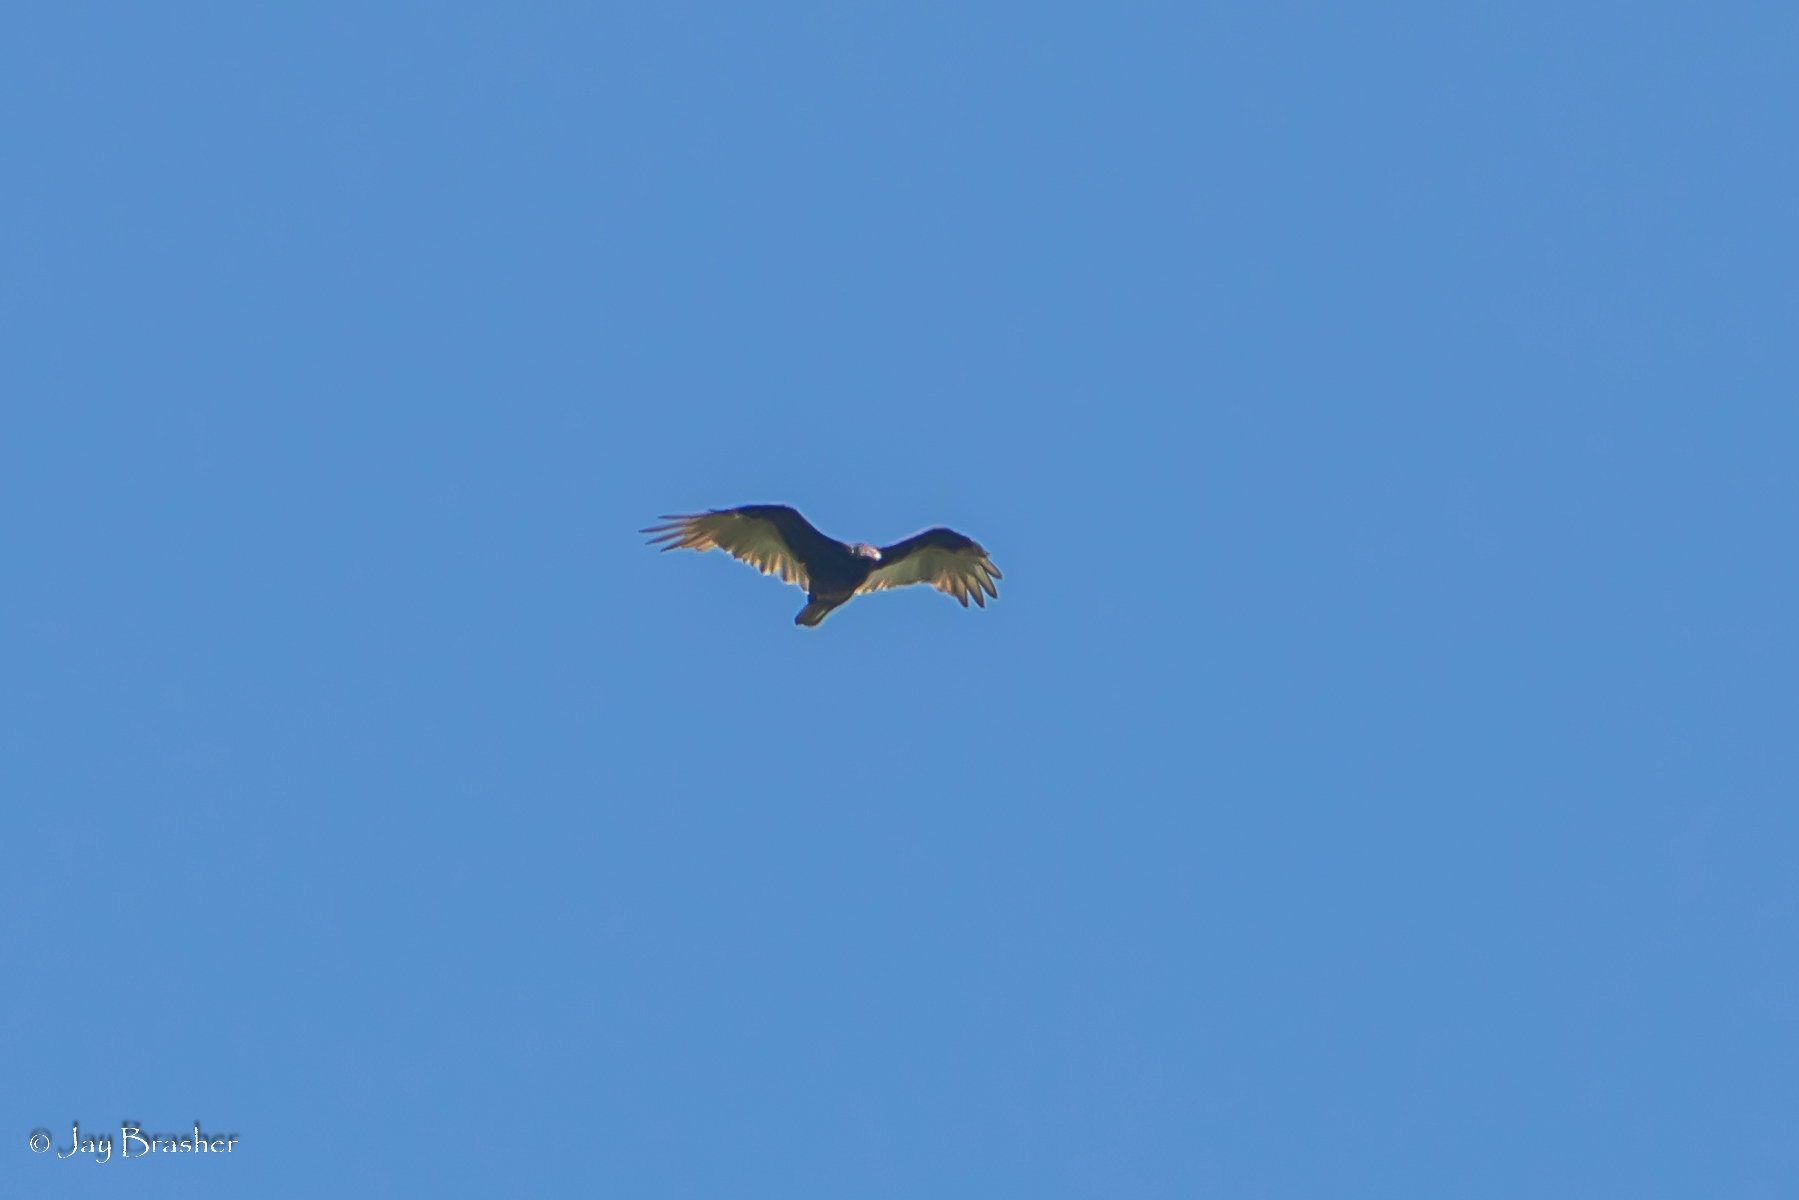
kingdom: Animalia
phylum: Chordata
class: Aves
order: Accipitriformes
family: Cathartidae
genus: Cathartes
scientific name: Cathartes aura
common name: Turkey vulture
